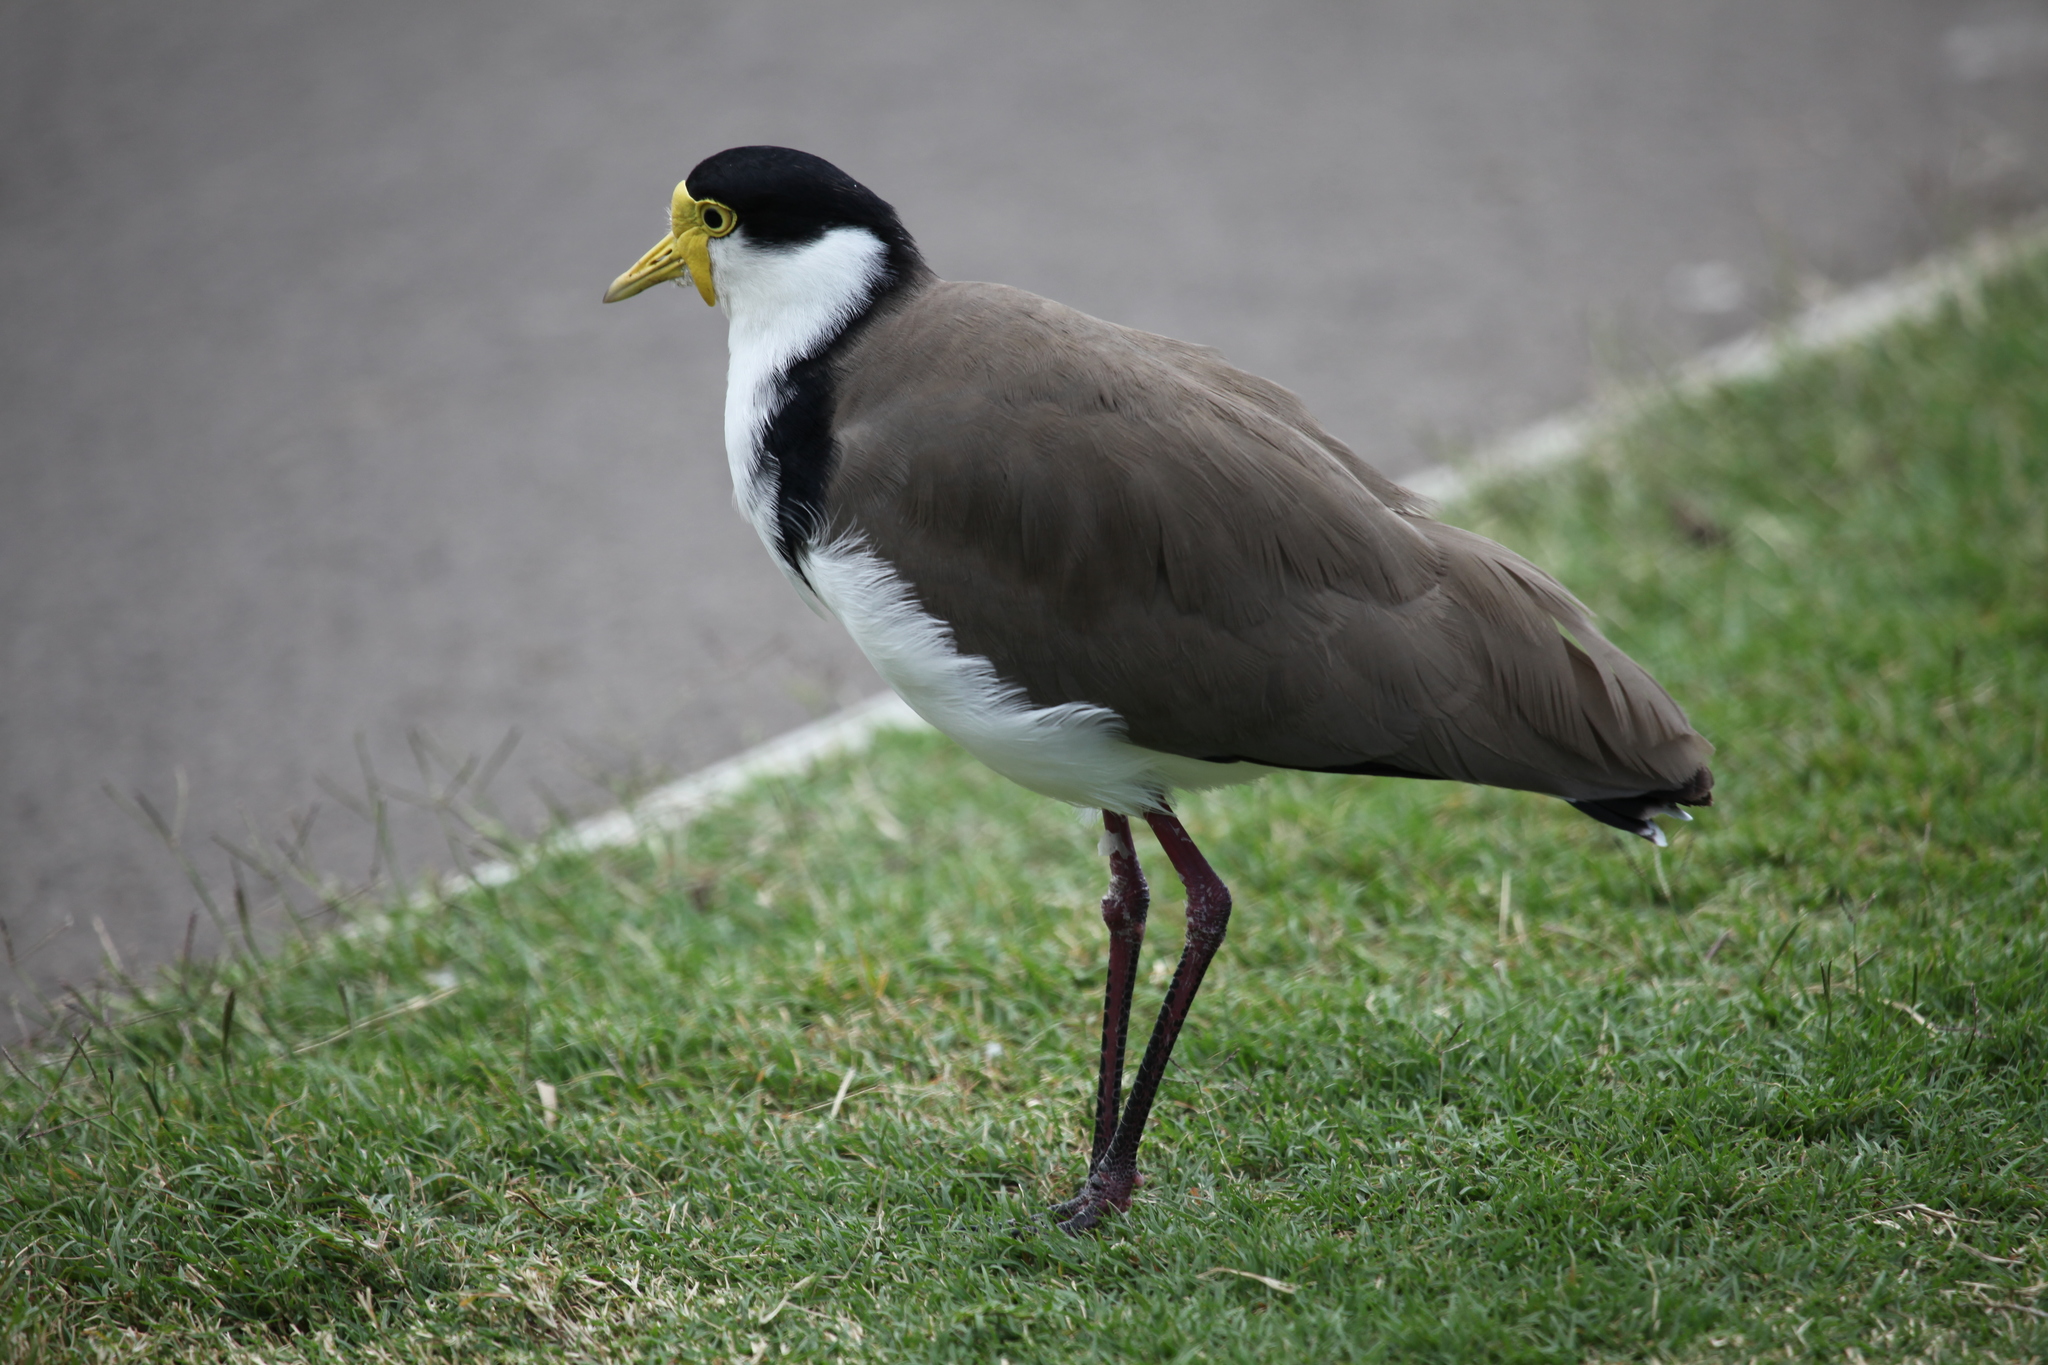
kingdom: Animalia
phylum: Chordata
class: Aves
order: Charadriiformes
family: Charadriidae
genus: Vanellus
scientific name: Vanellus miles
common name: Masked lapwing
